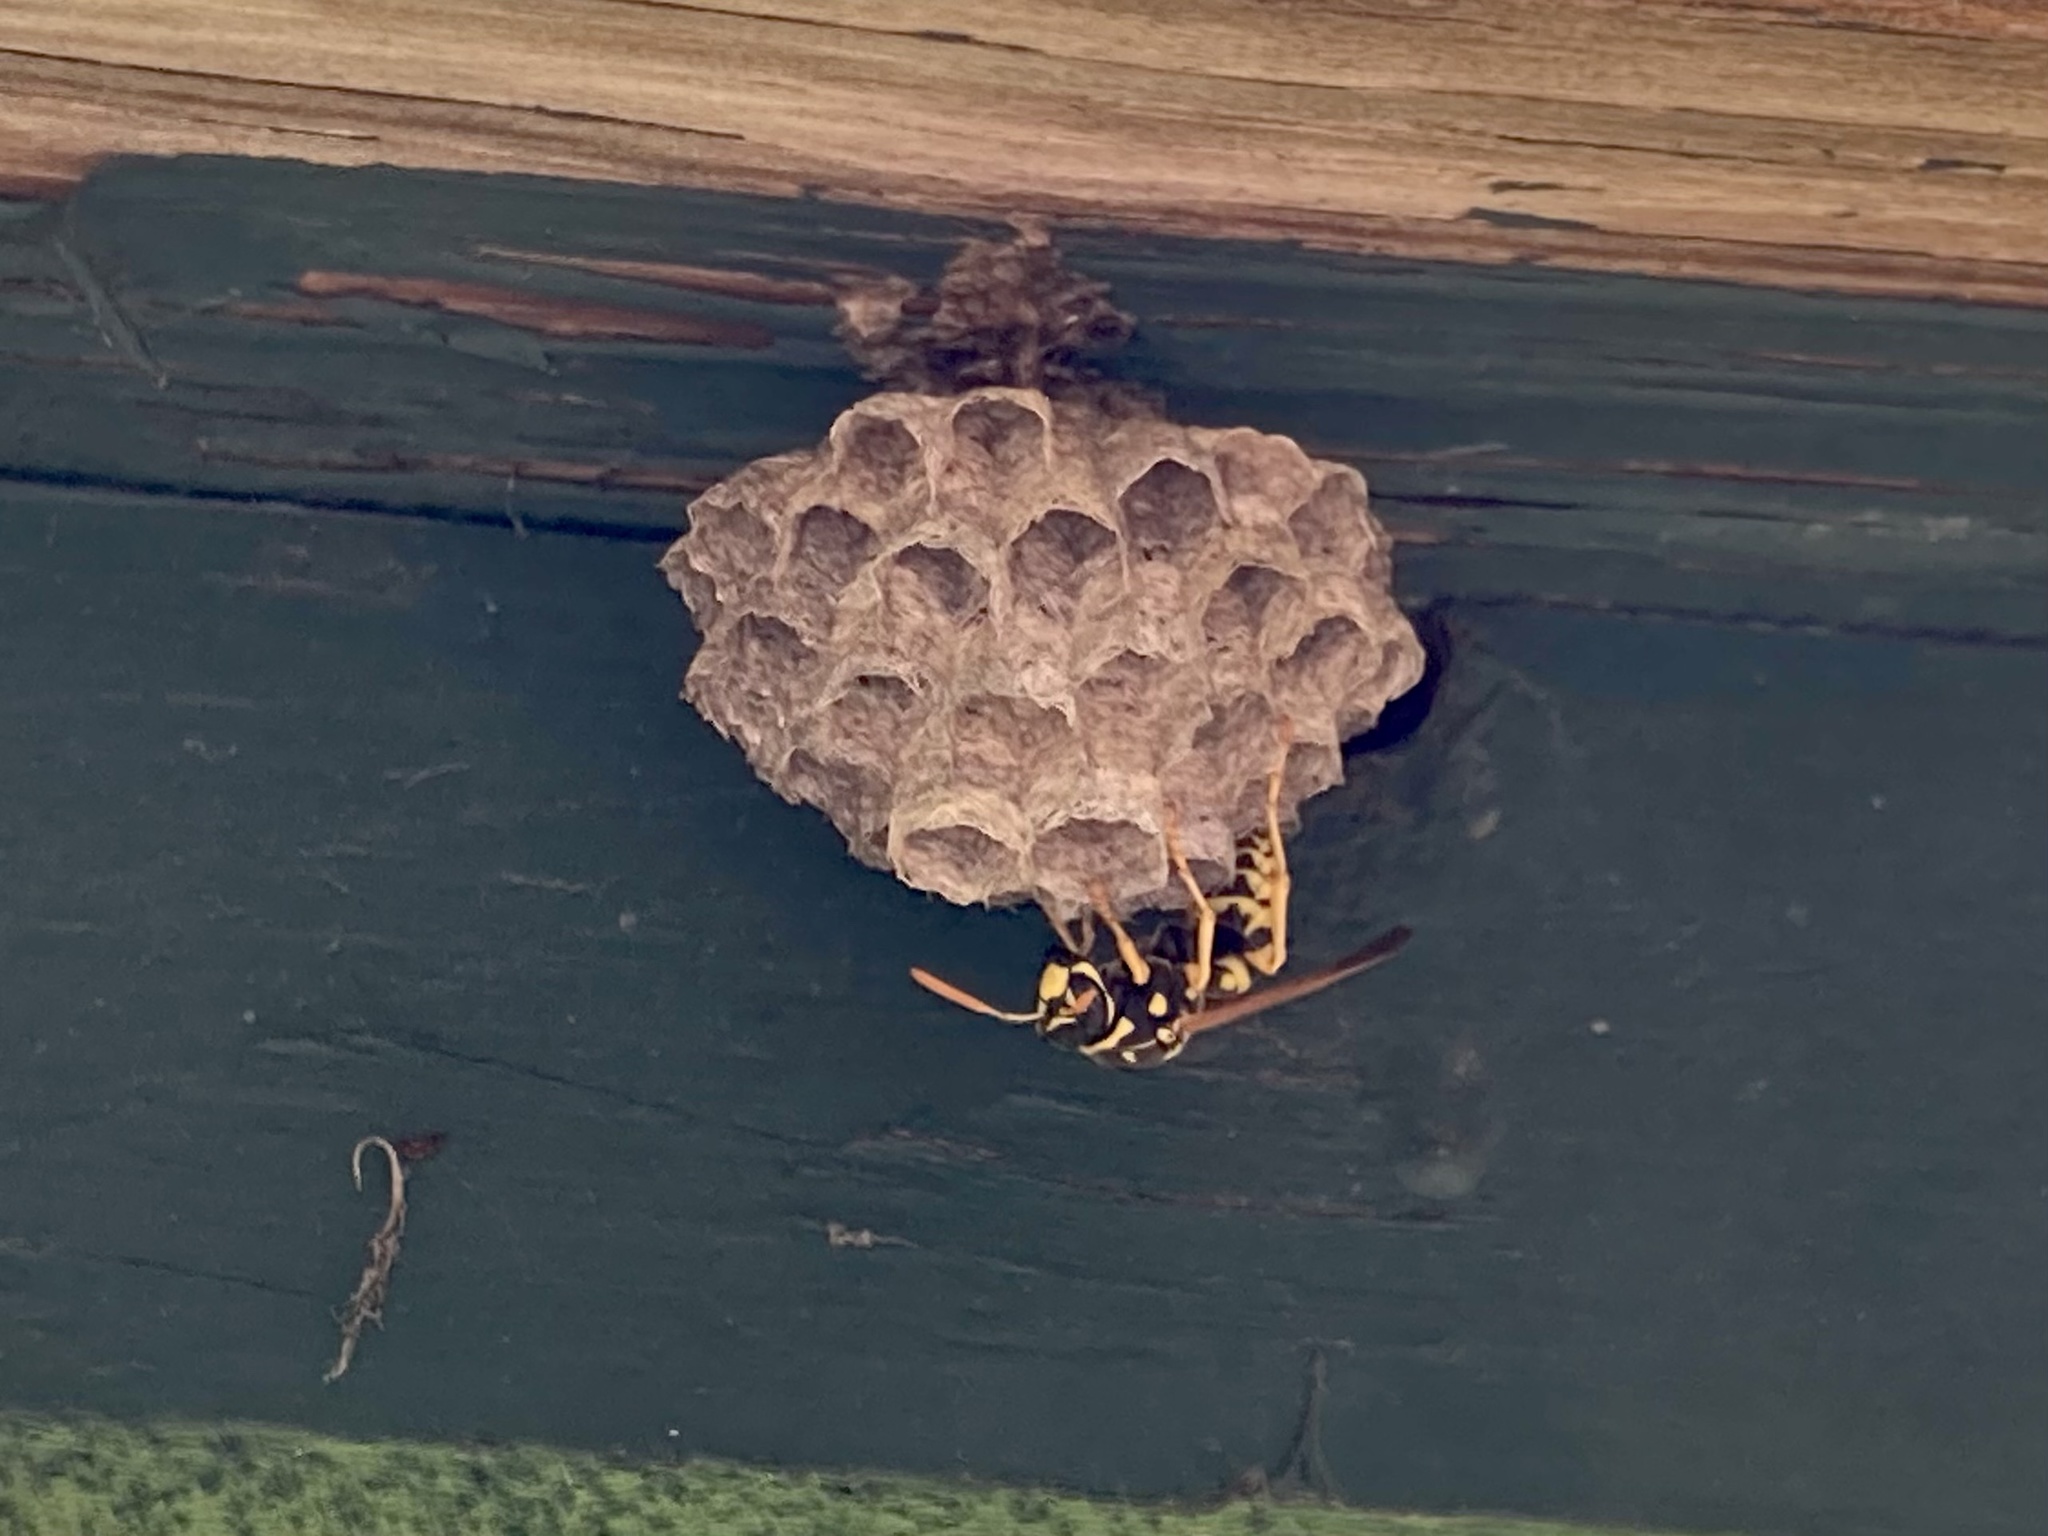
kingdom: Animalia
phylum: Arthropoda
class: Insecta
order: Hymenoptera
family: Eumenidae
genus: Polistes
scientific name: Polistes dominula
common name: Paper wasp
